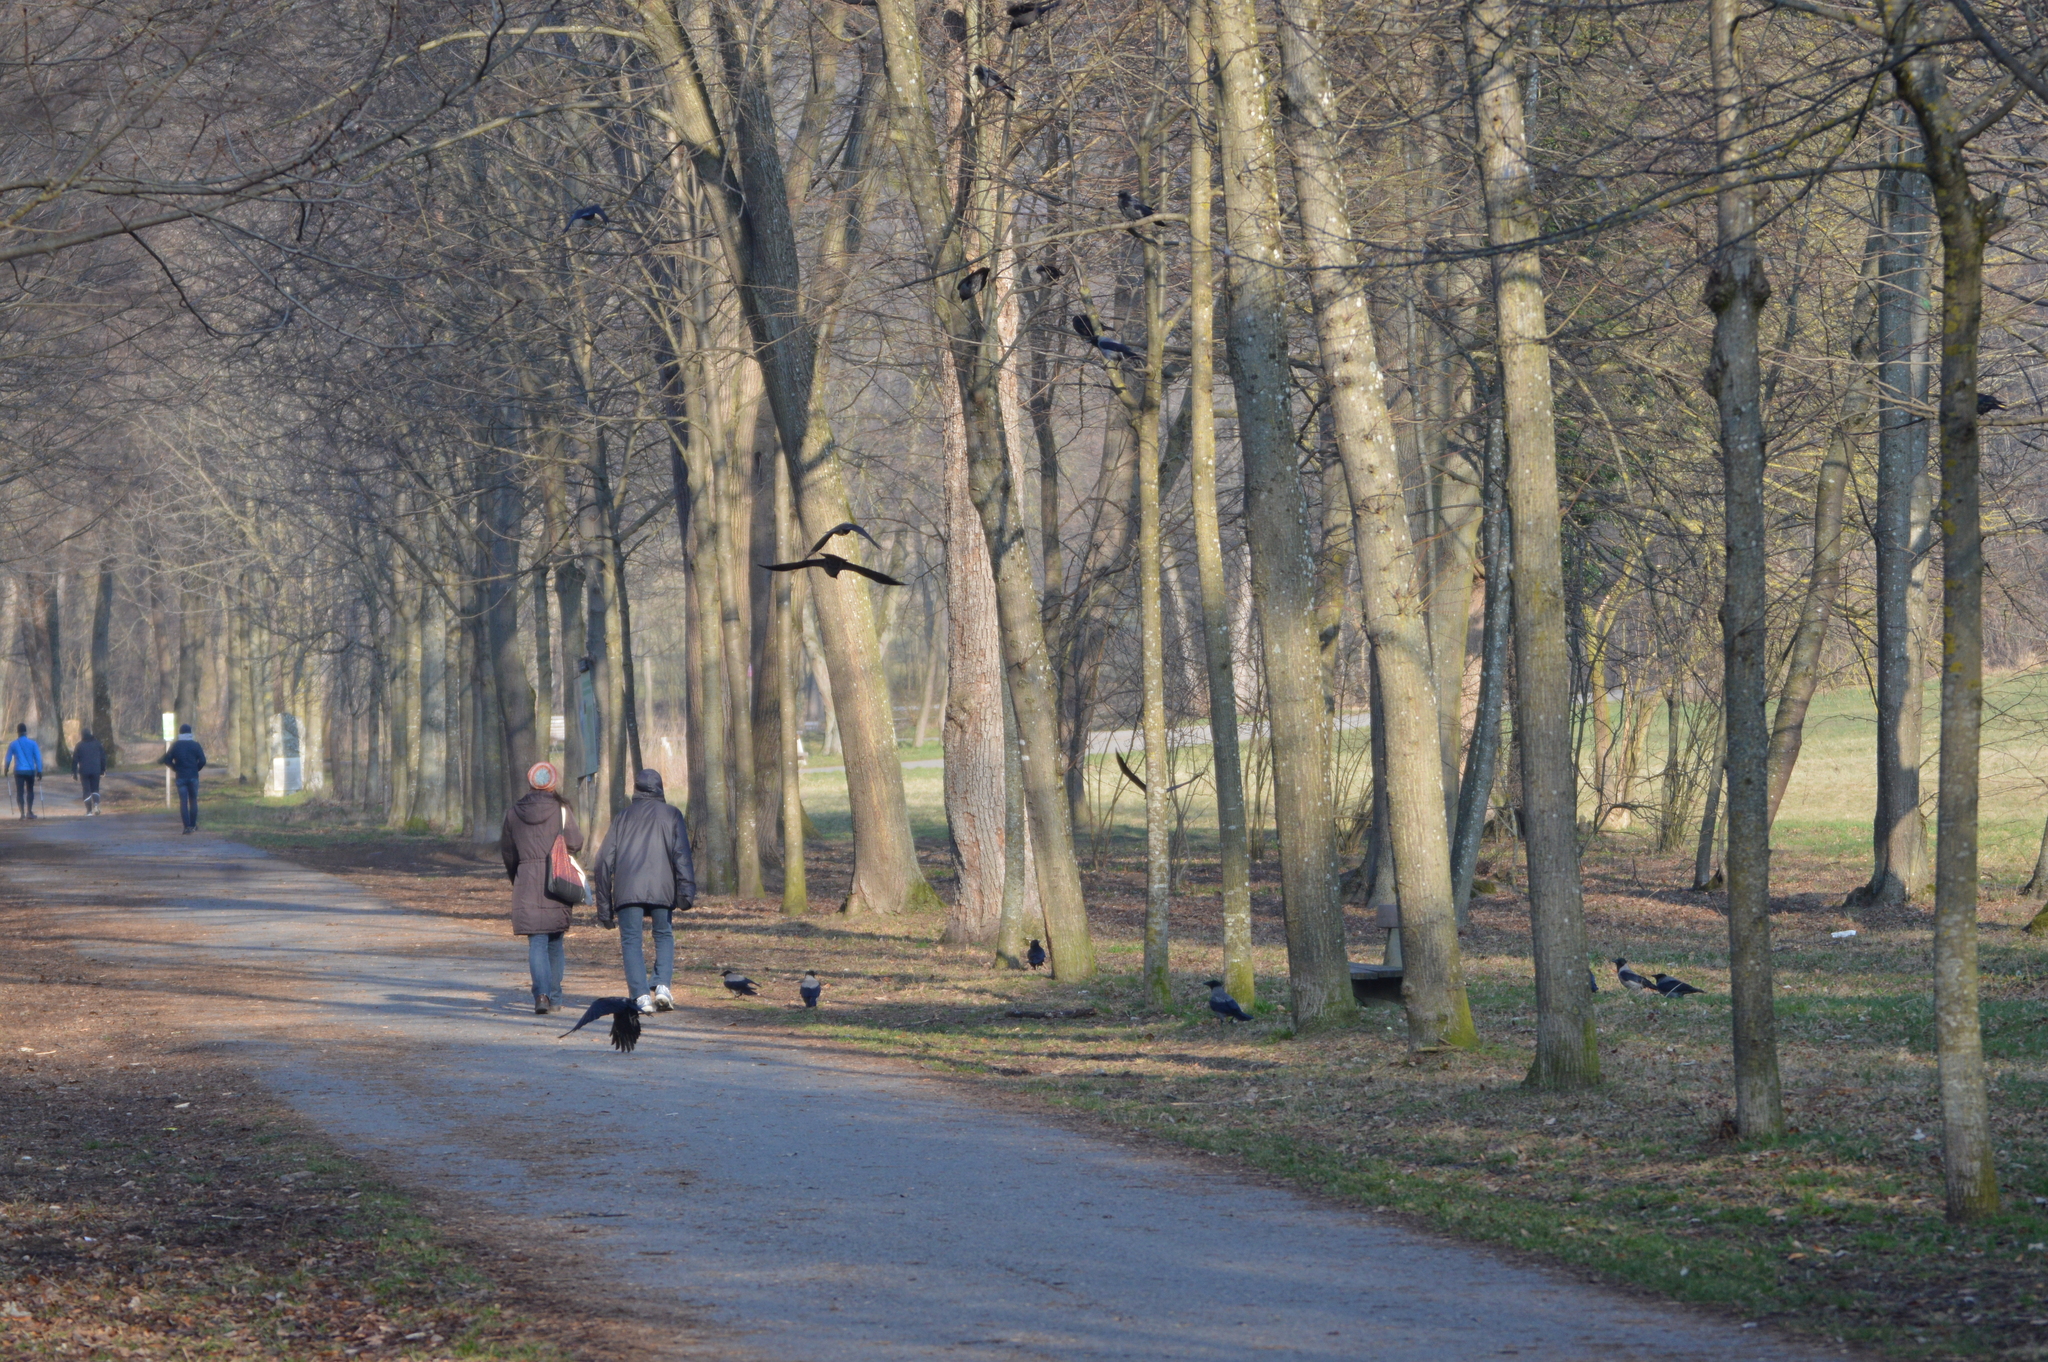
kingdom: Animalia
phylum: Chordata
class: Aves
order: Passeriformes
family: Corvidae
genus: Corvus
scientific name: Corvus
